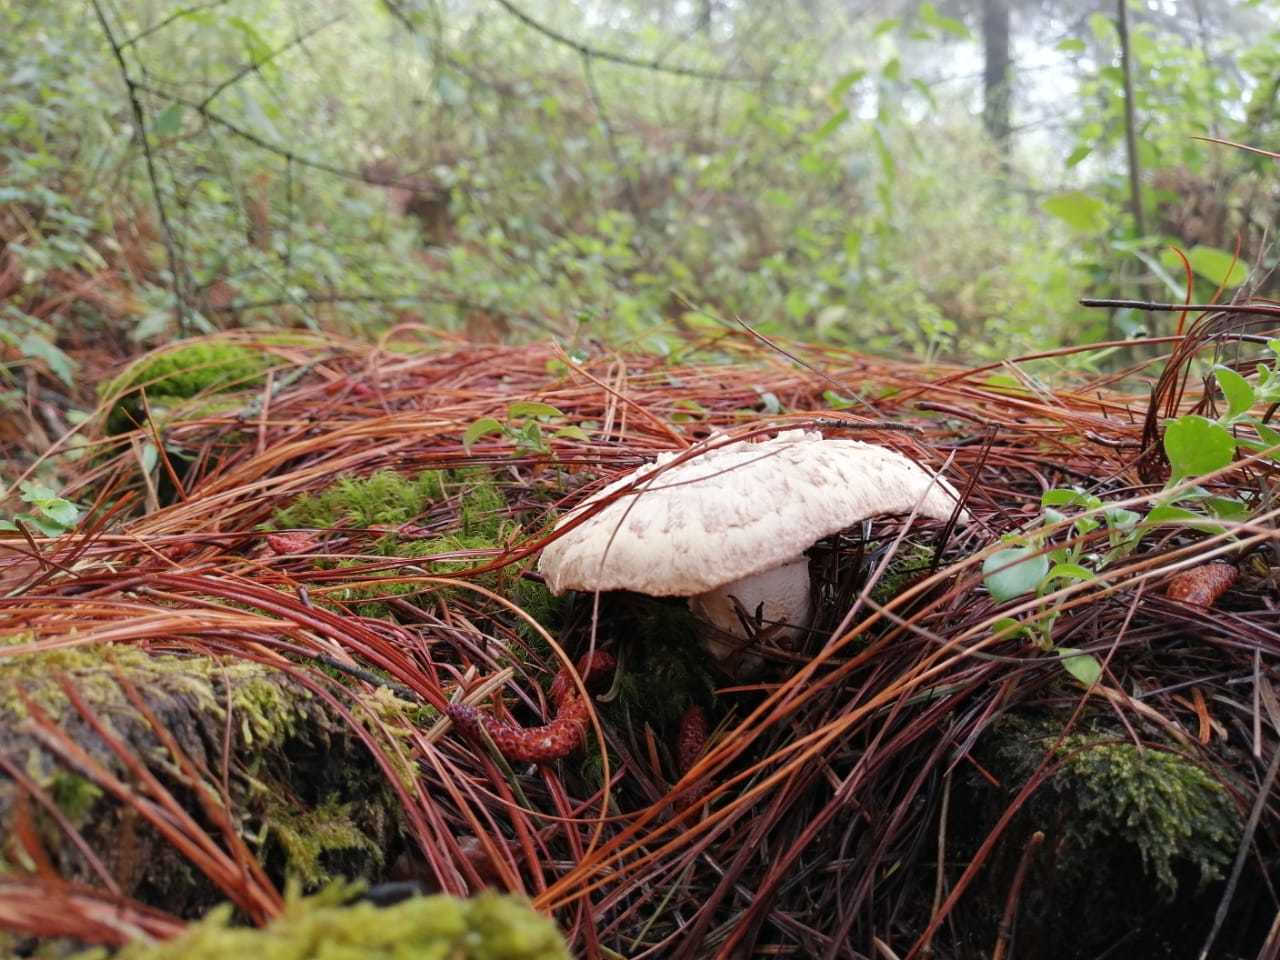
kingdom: Fungi
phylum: Basidiomycota
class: Agaricomycetes
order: Gloeophyllales
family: Gloeophyllaceae
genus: Neolentinus
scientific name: Neolentinus lepideus
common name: Scaly sawgill
